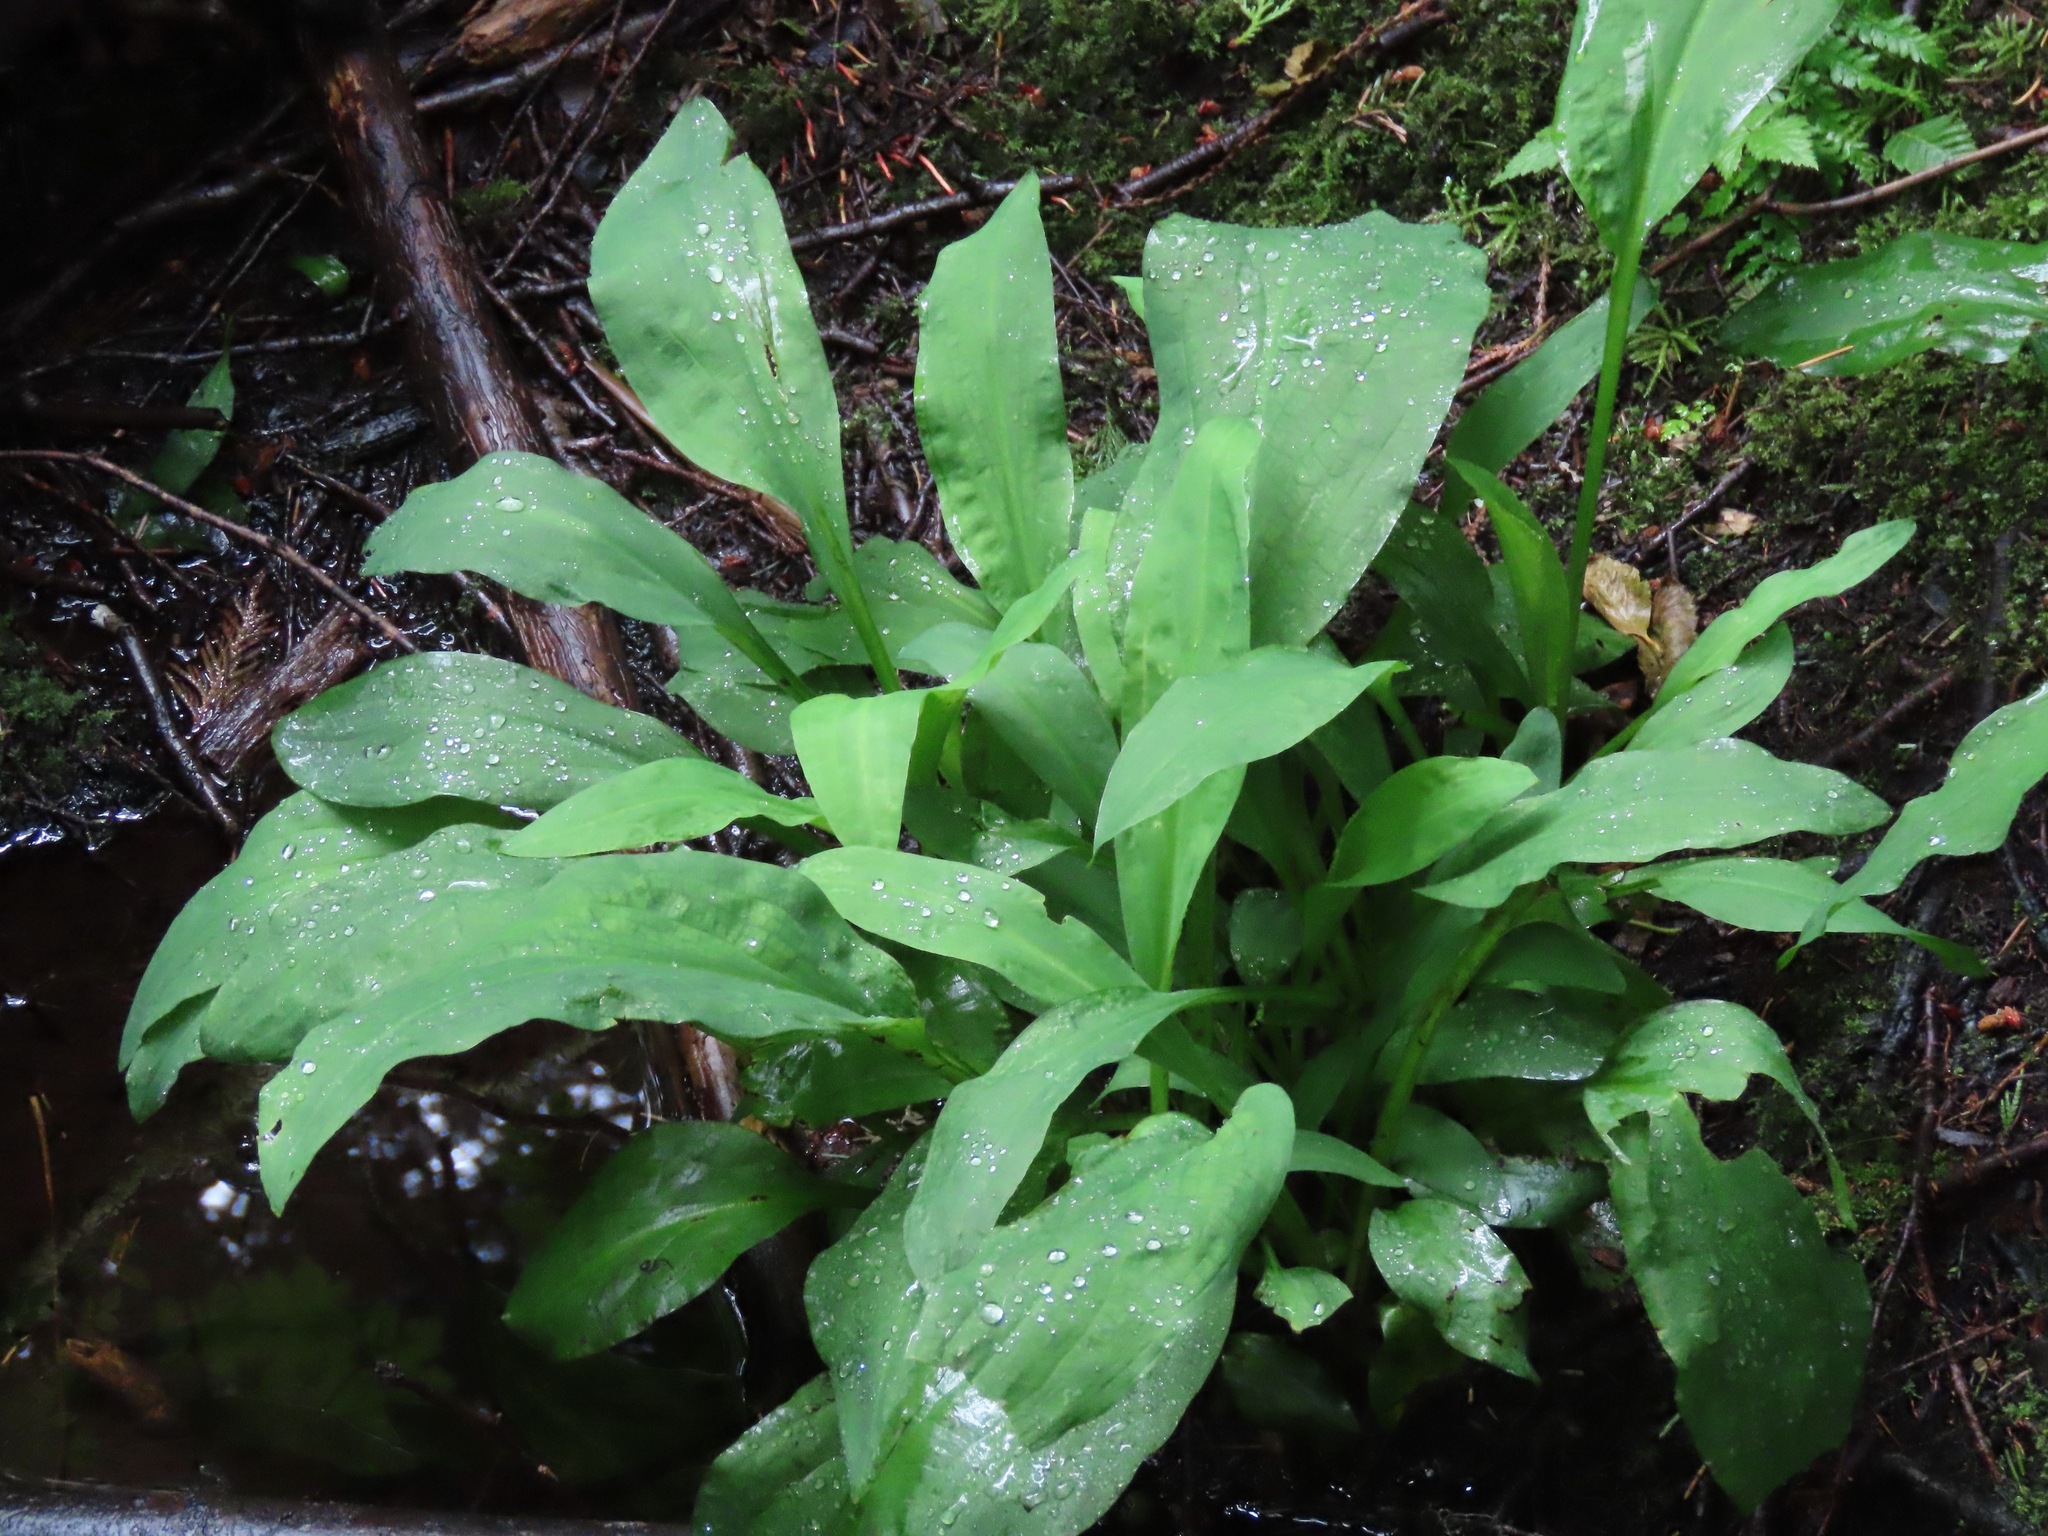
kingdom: Plantae
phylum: Tracheophyta
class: Liliopsida
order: Alismatales
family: Araceae
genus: Lysichiton
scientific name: Lysichiton americanus
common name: American skunk cabbage
